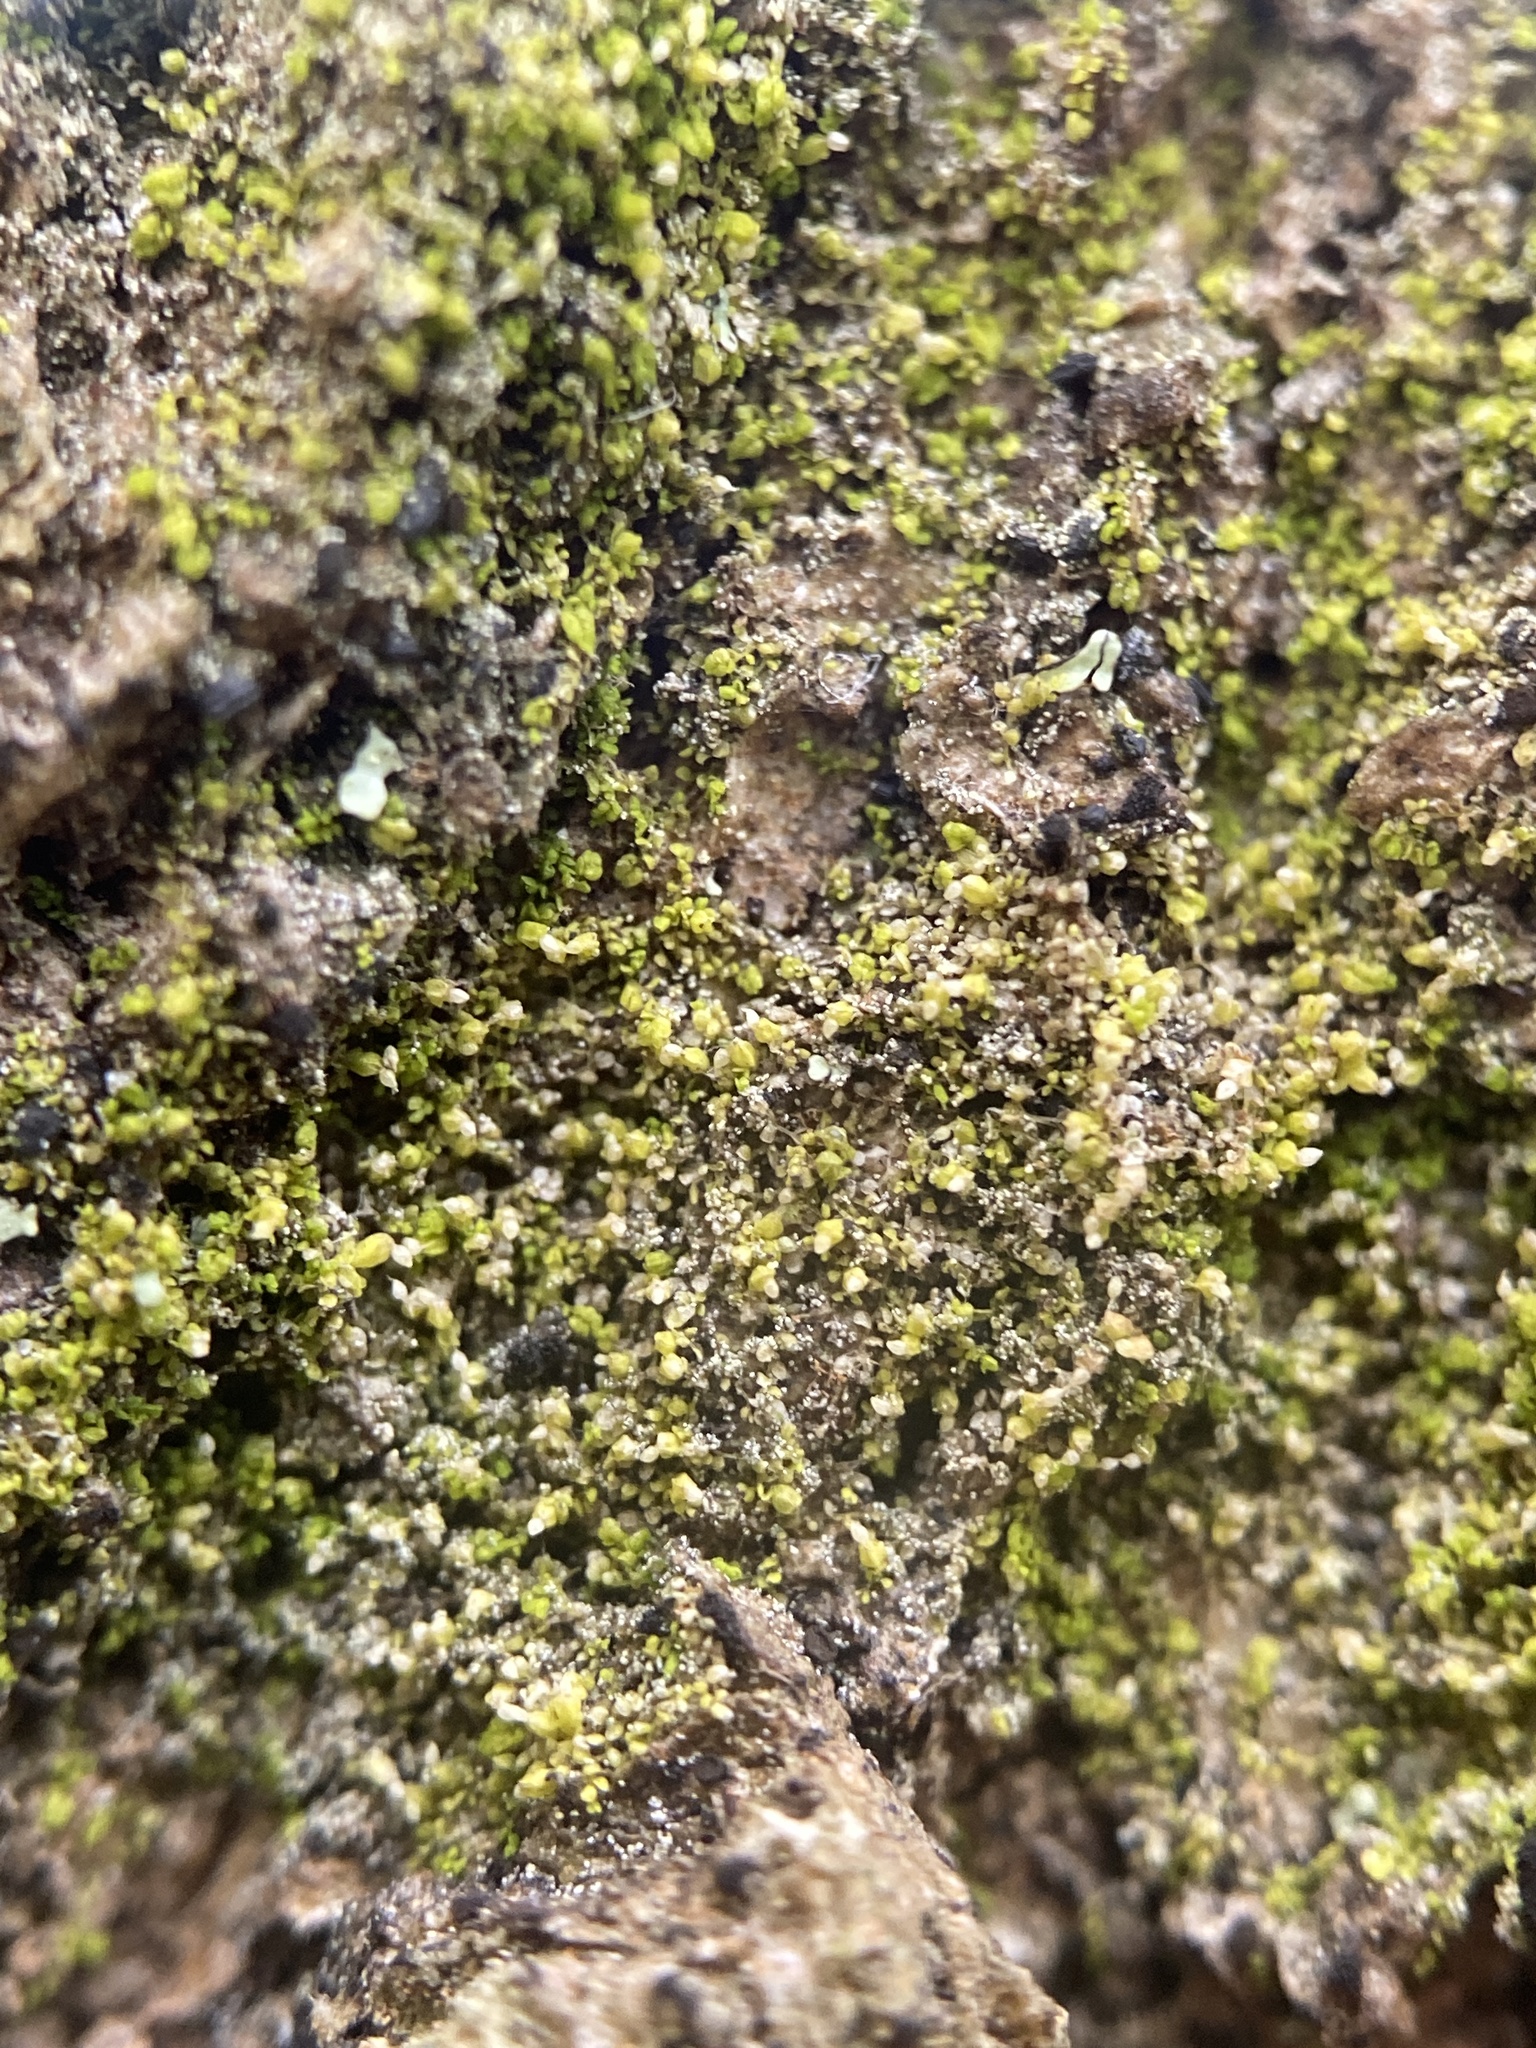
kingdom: Plantae
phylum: Marchantiophyta
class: Jungermanniopsida
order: Porellales
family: Lejeuneaceae
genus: Myriocoleopsis
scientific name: Myriocoleopsis minutissima
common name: Minute pouncewort
